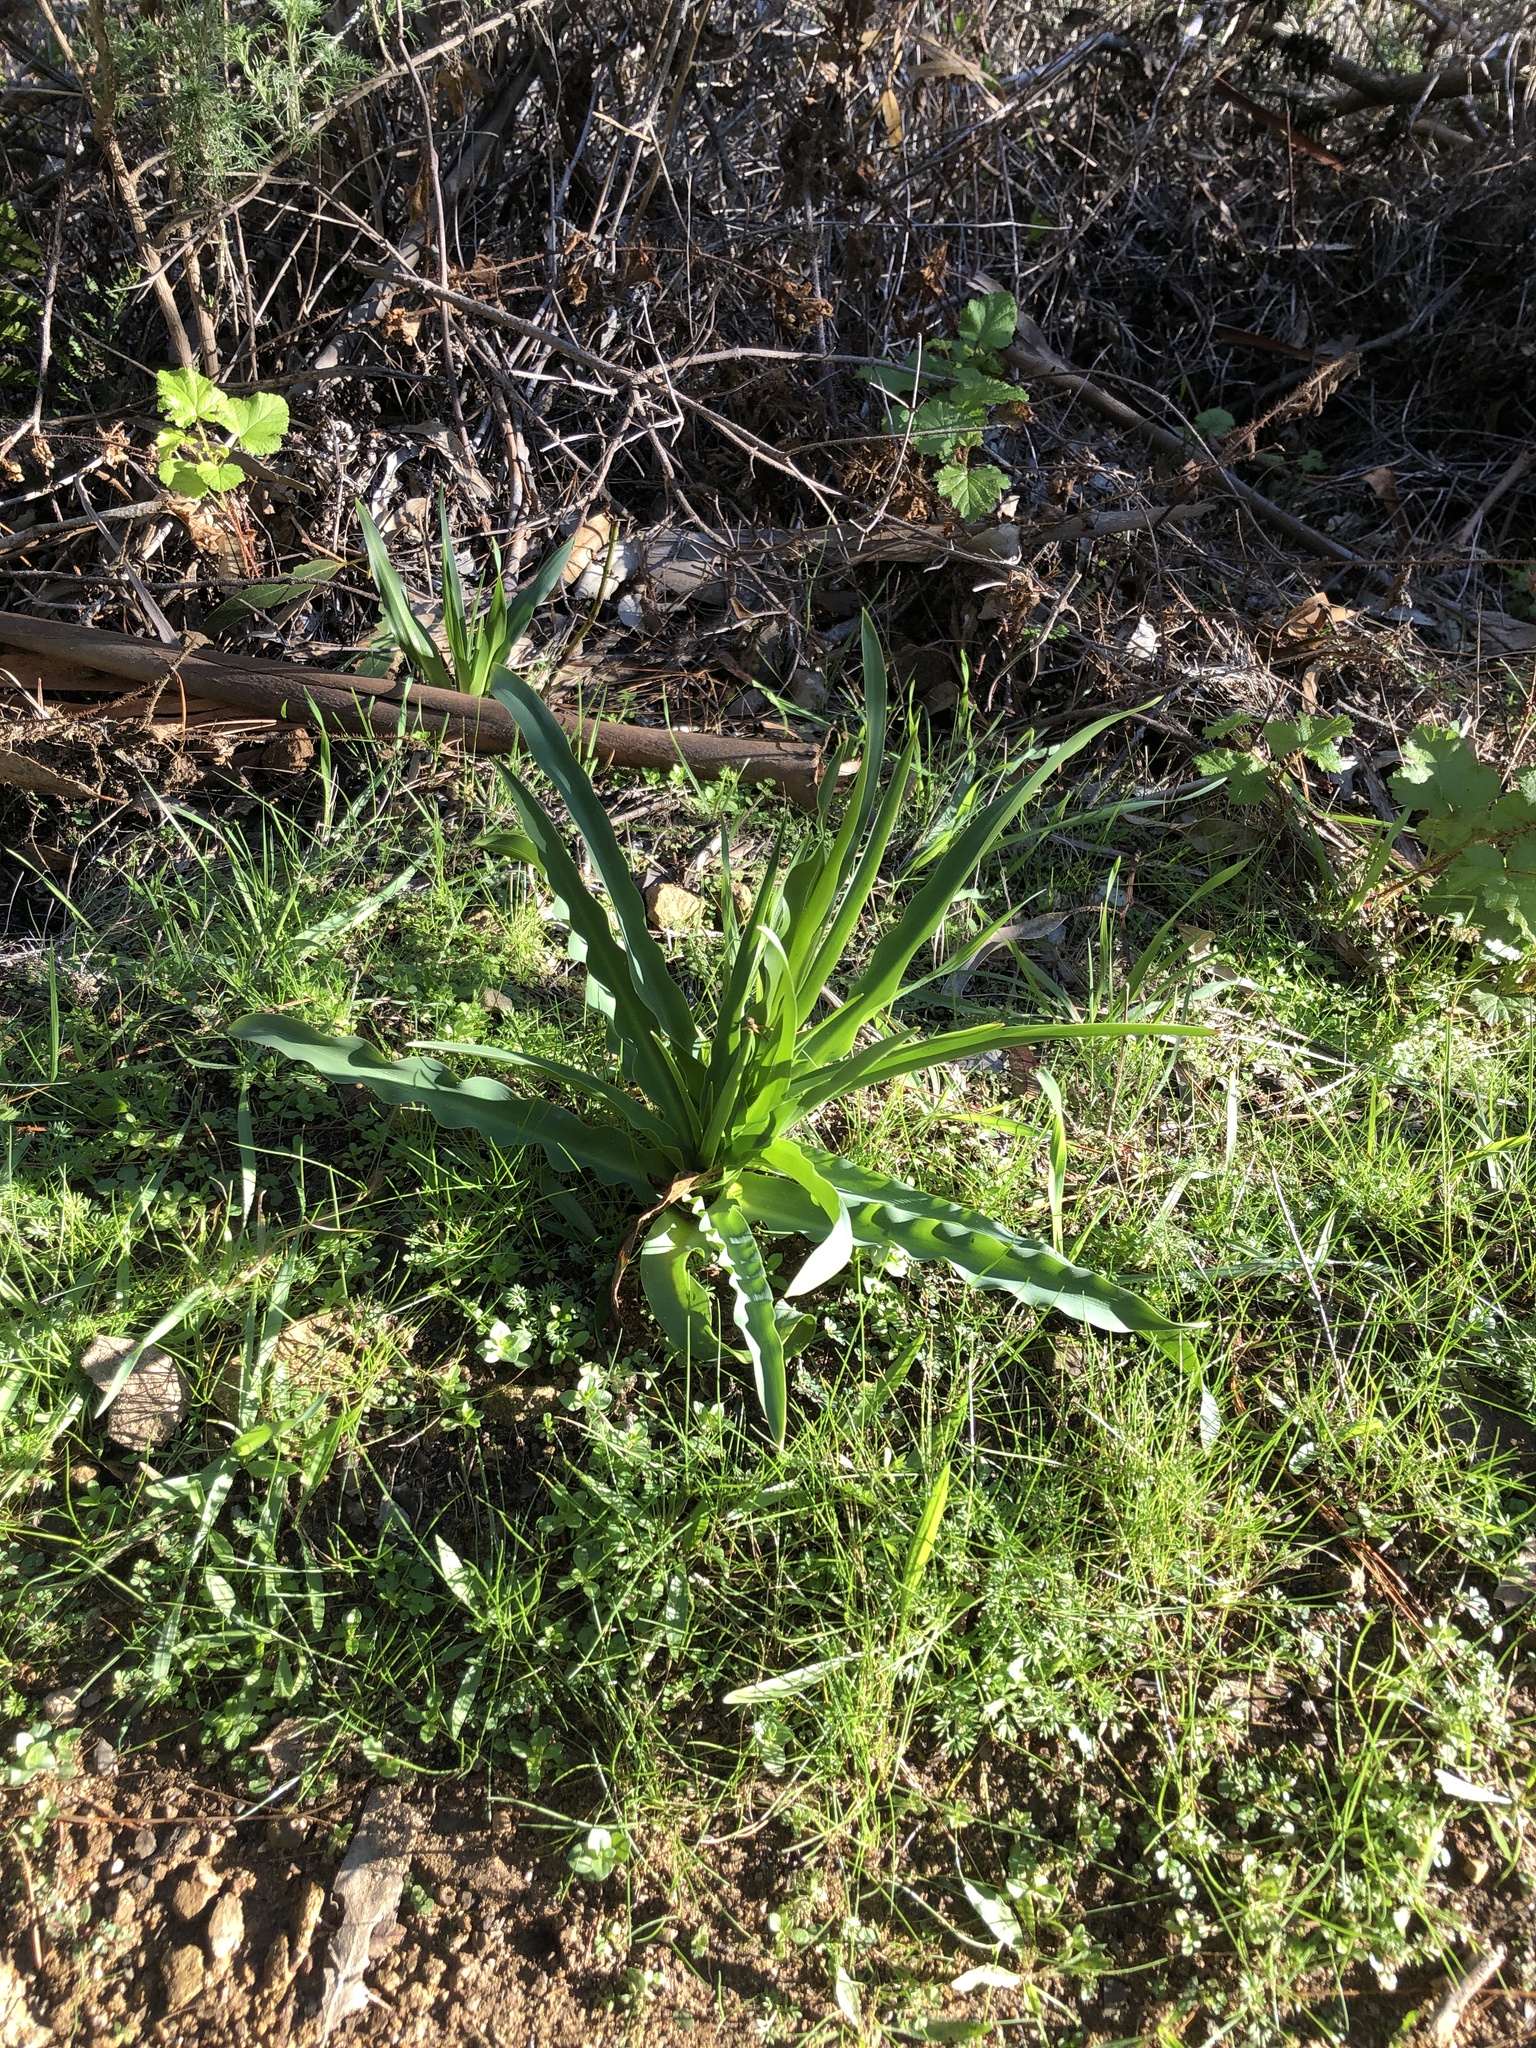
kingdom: Plantae
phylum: Tracheophyta
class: Liliopsida
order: Asparagales
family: Asparagaceae
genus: Chlorogalum
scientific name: Chlorogalum pomeridianum
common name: Amole
